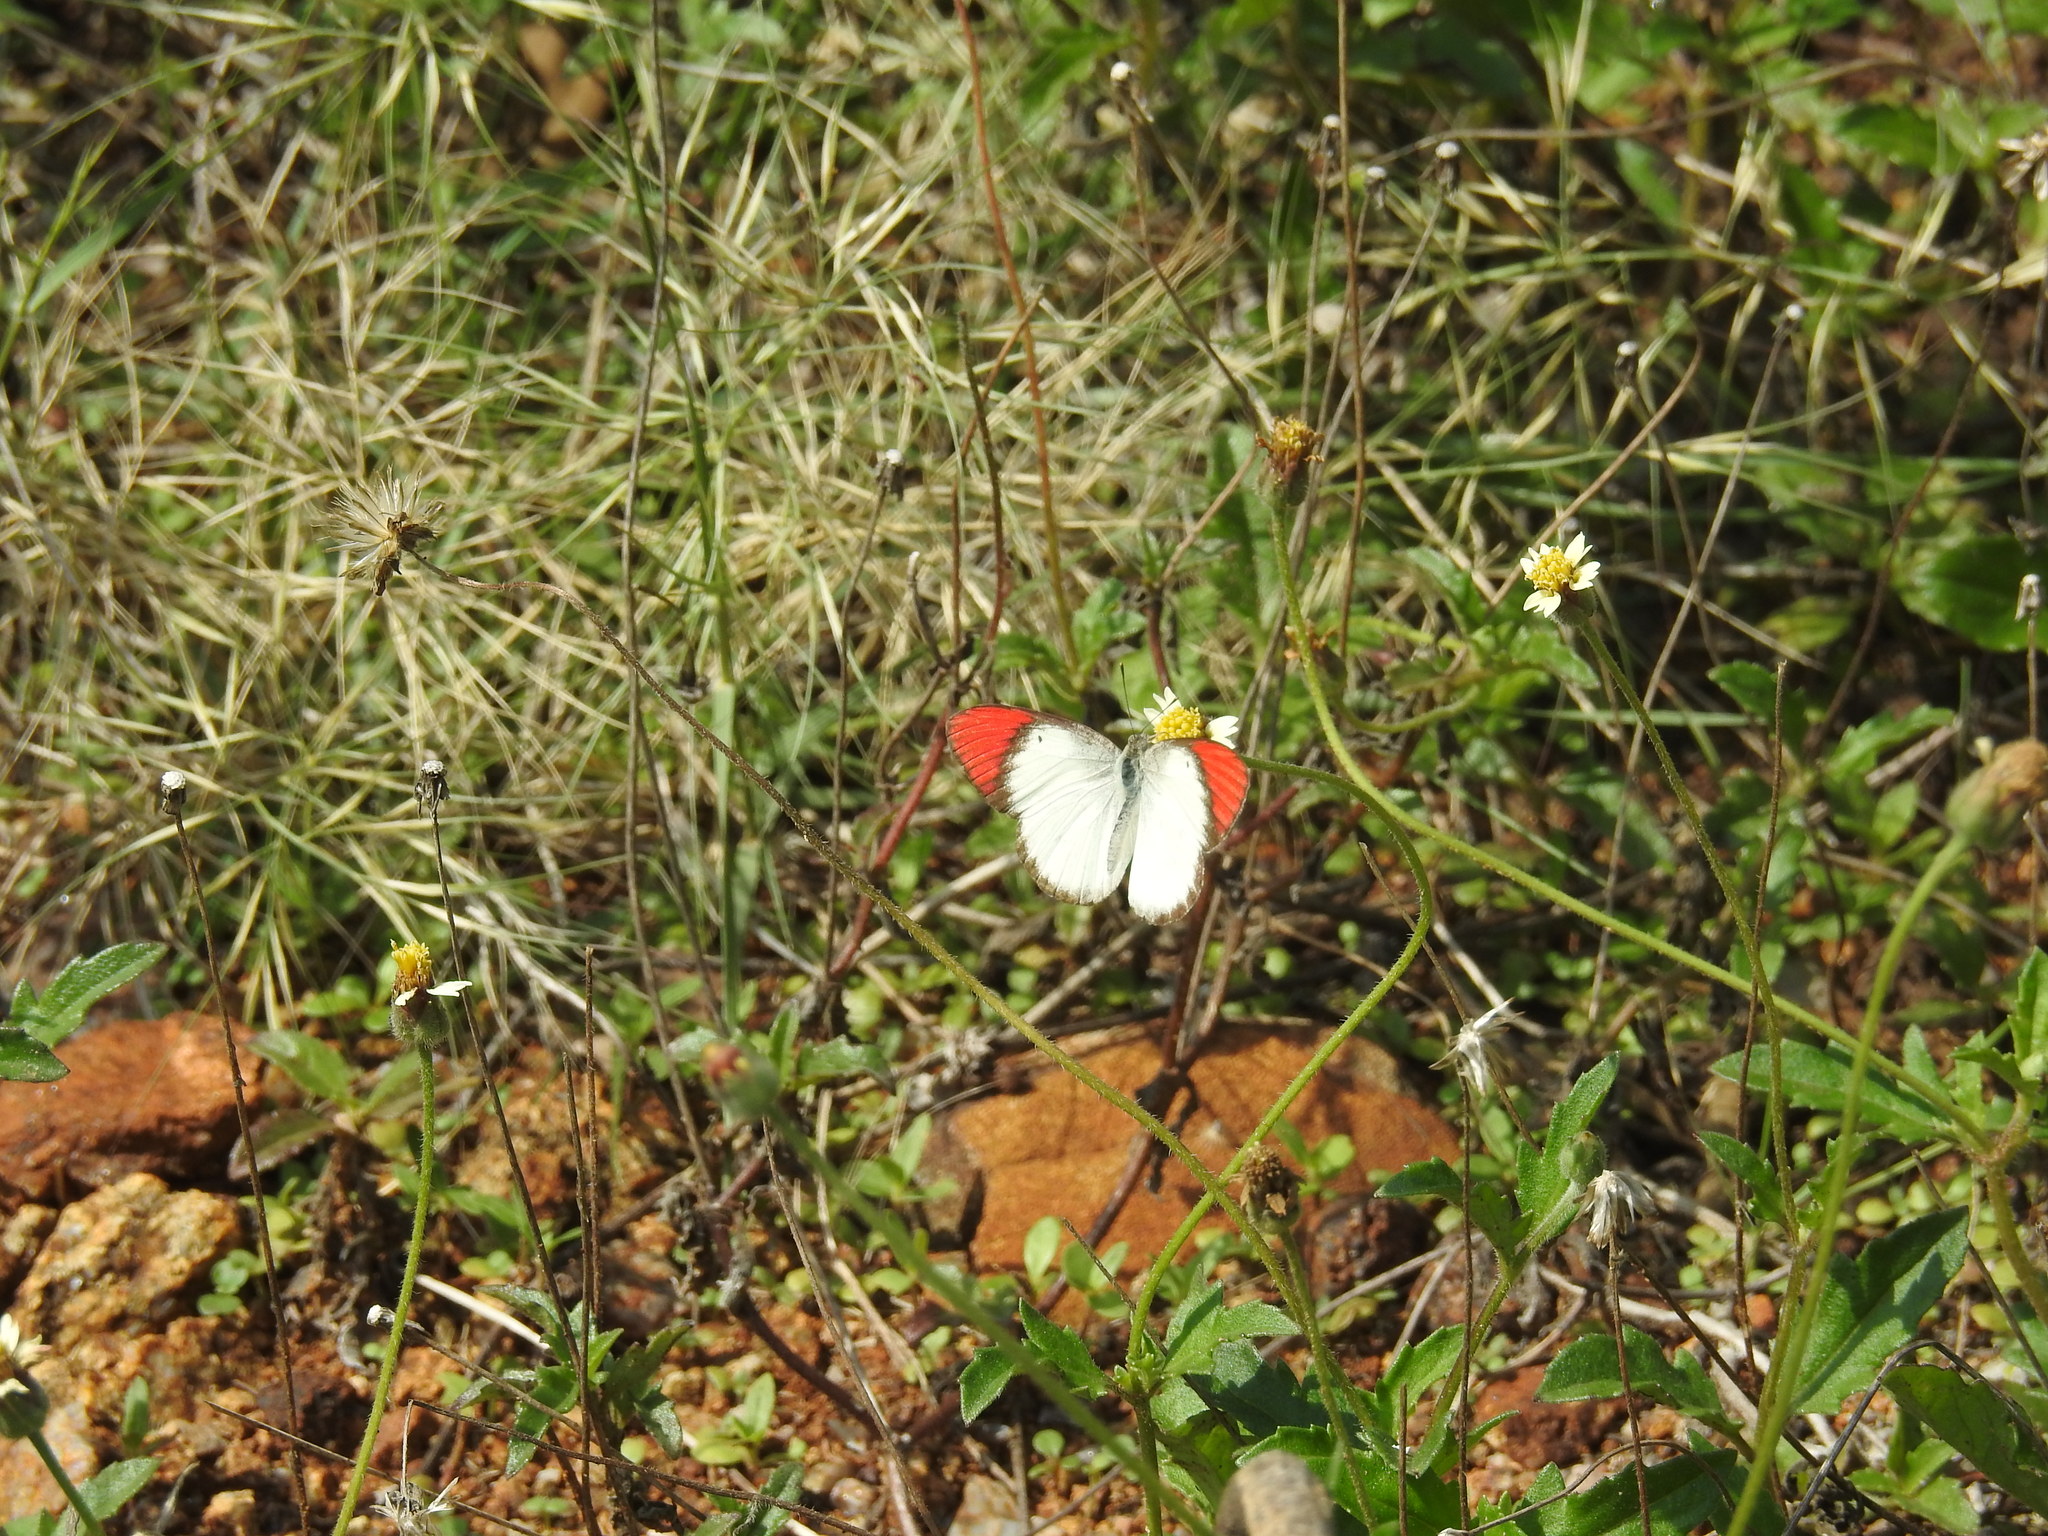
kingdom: Animalia
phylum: Arthropoda
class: Insecta
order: Lepidoptera
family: Pieridae
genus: Colotis
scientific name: Colotis danae
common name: Crimson tip
